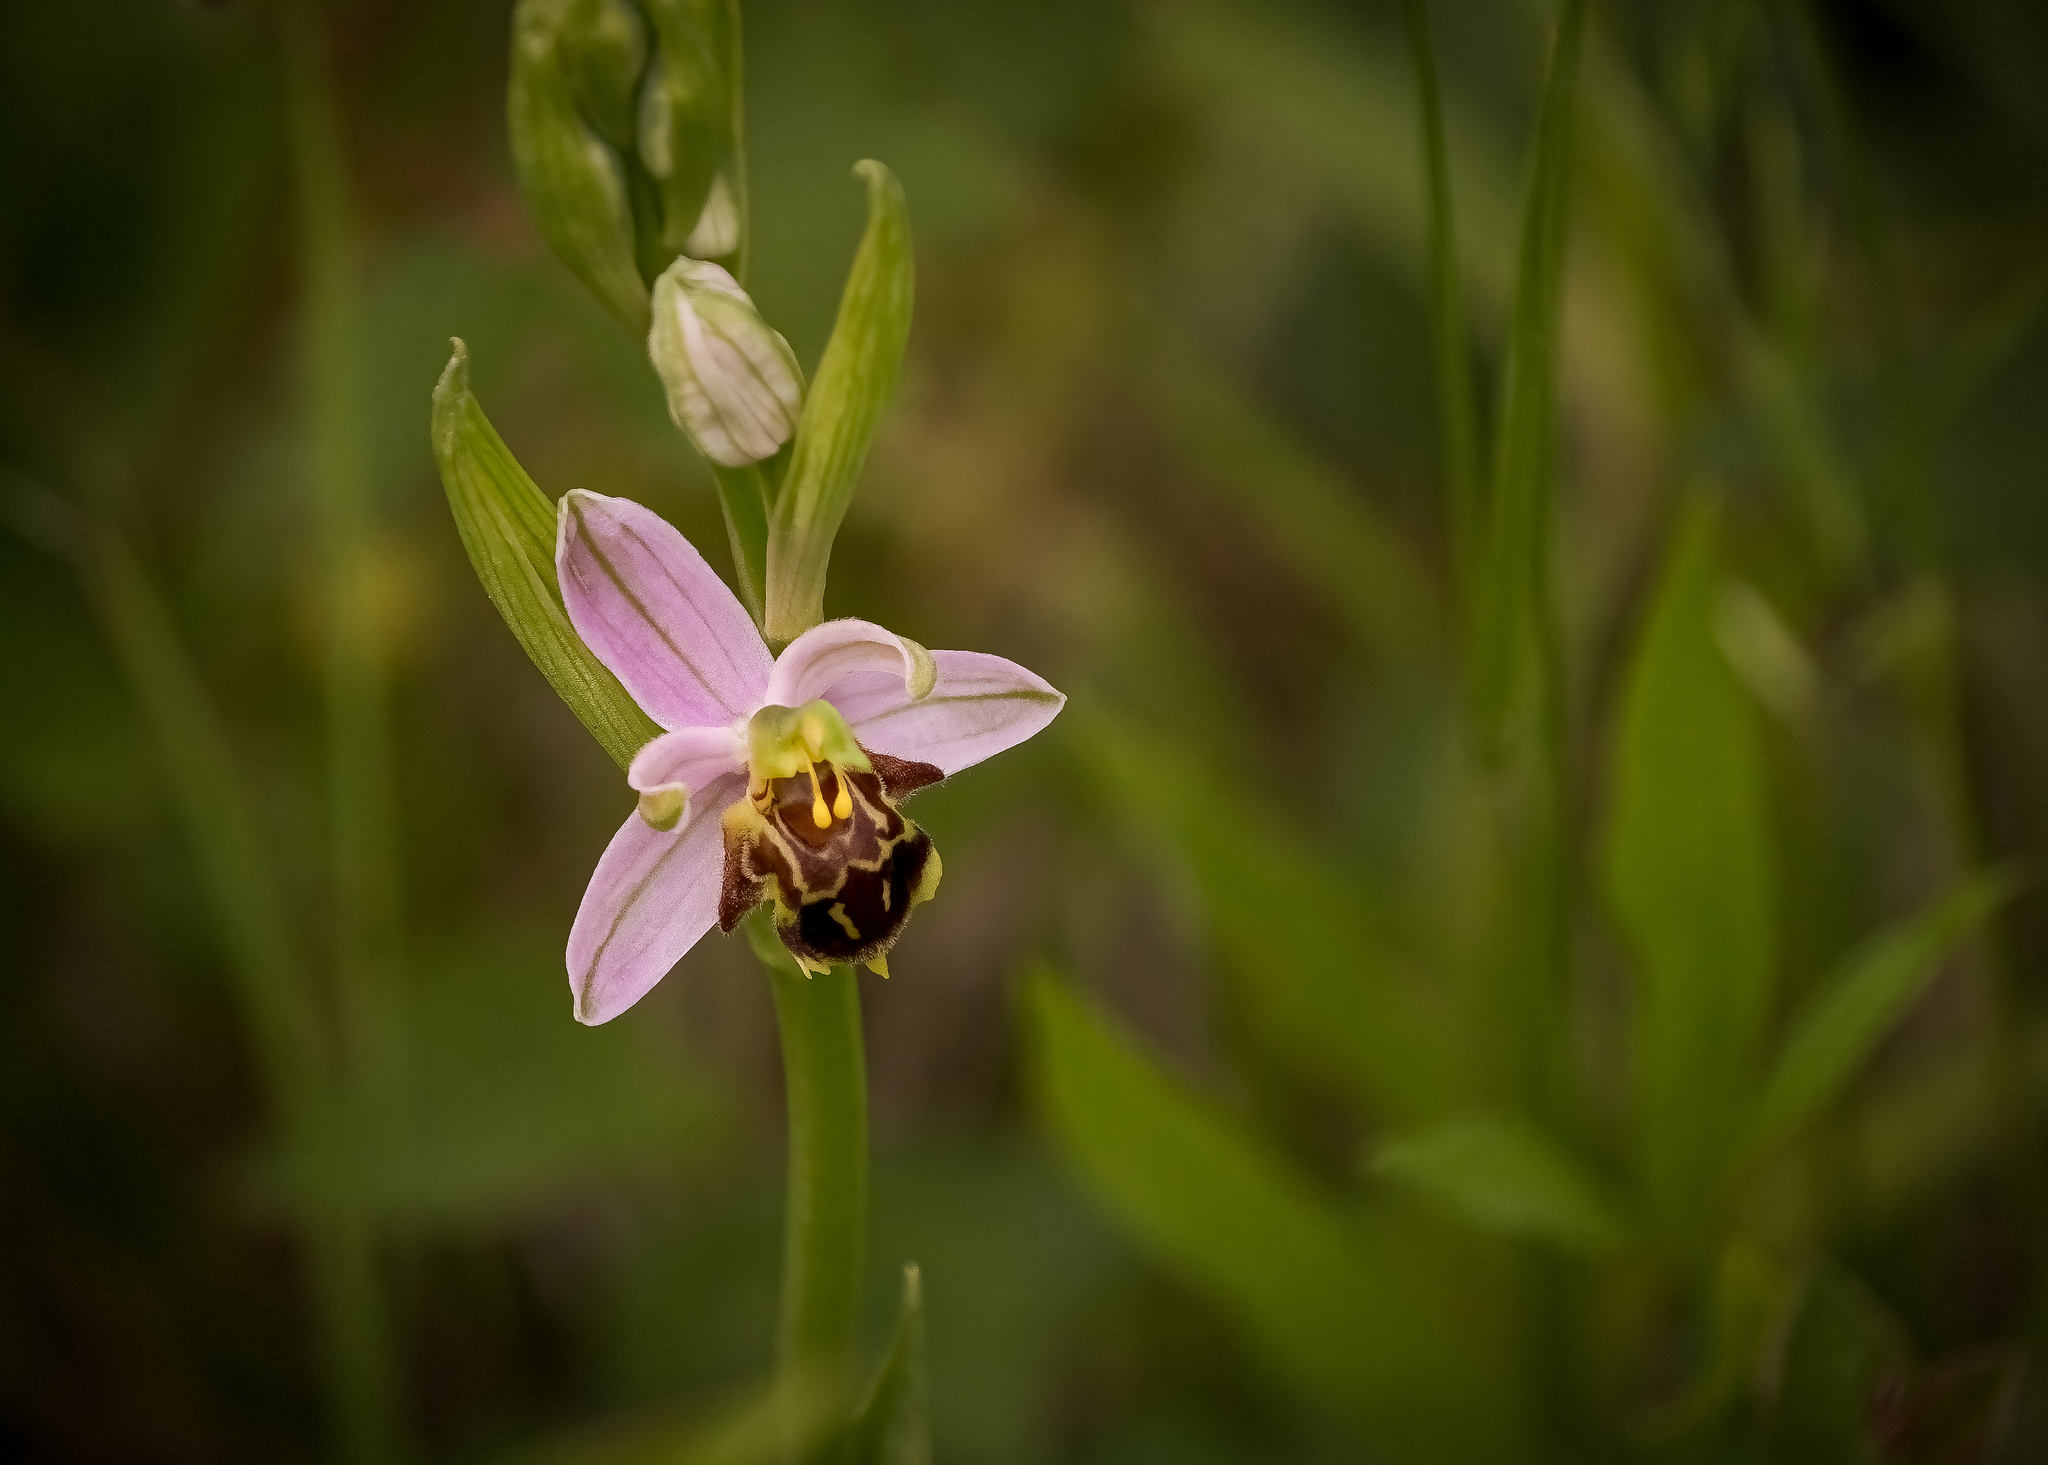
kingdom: Plantae
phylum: Tracheophyta
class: Liliopsida
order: Asparagales
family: Orchidaceae
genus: Ophrys
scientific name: Ophrys apifera
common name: Bee orchid
